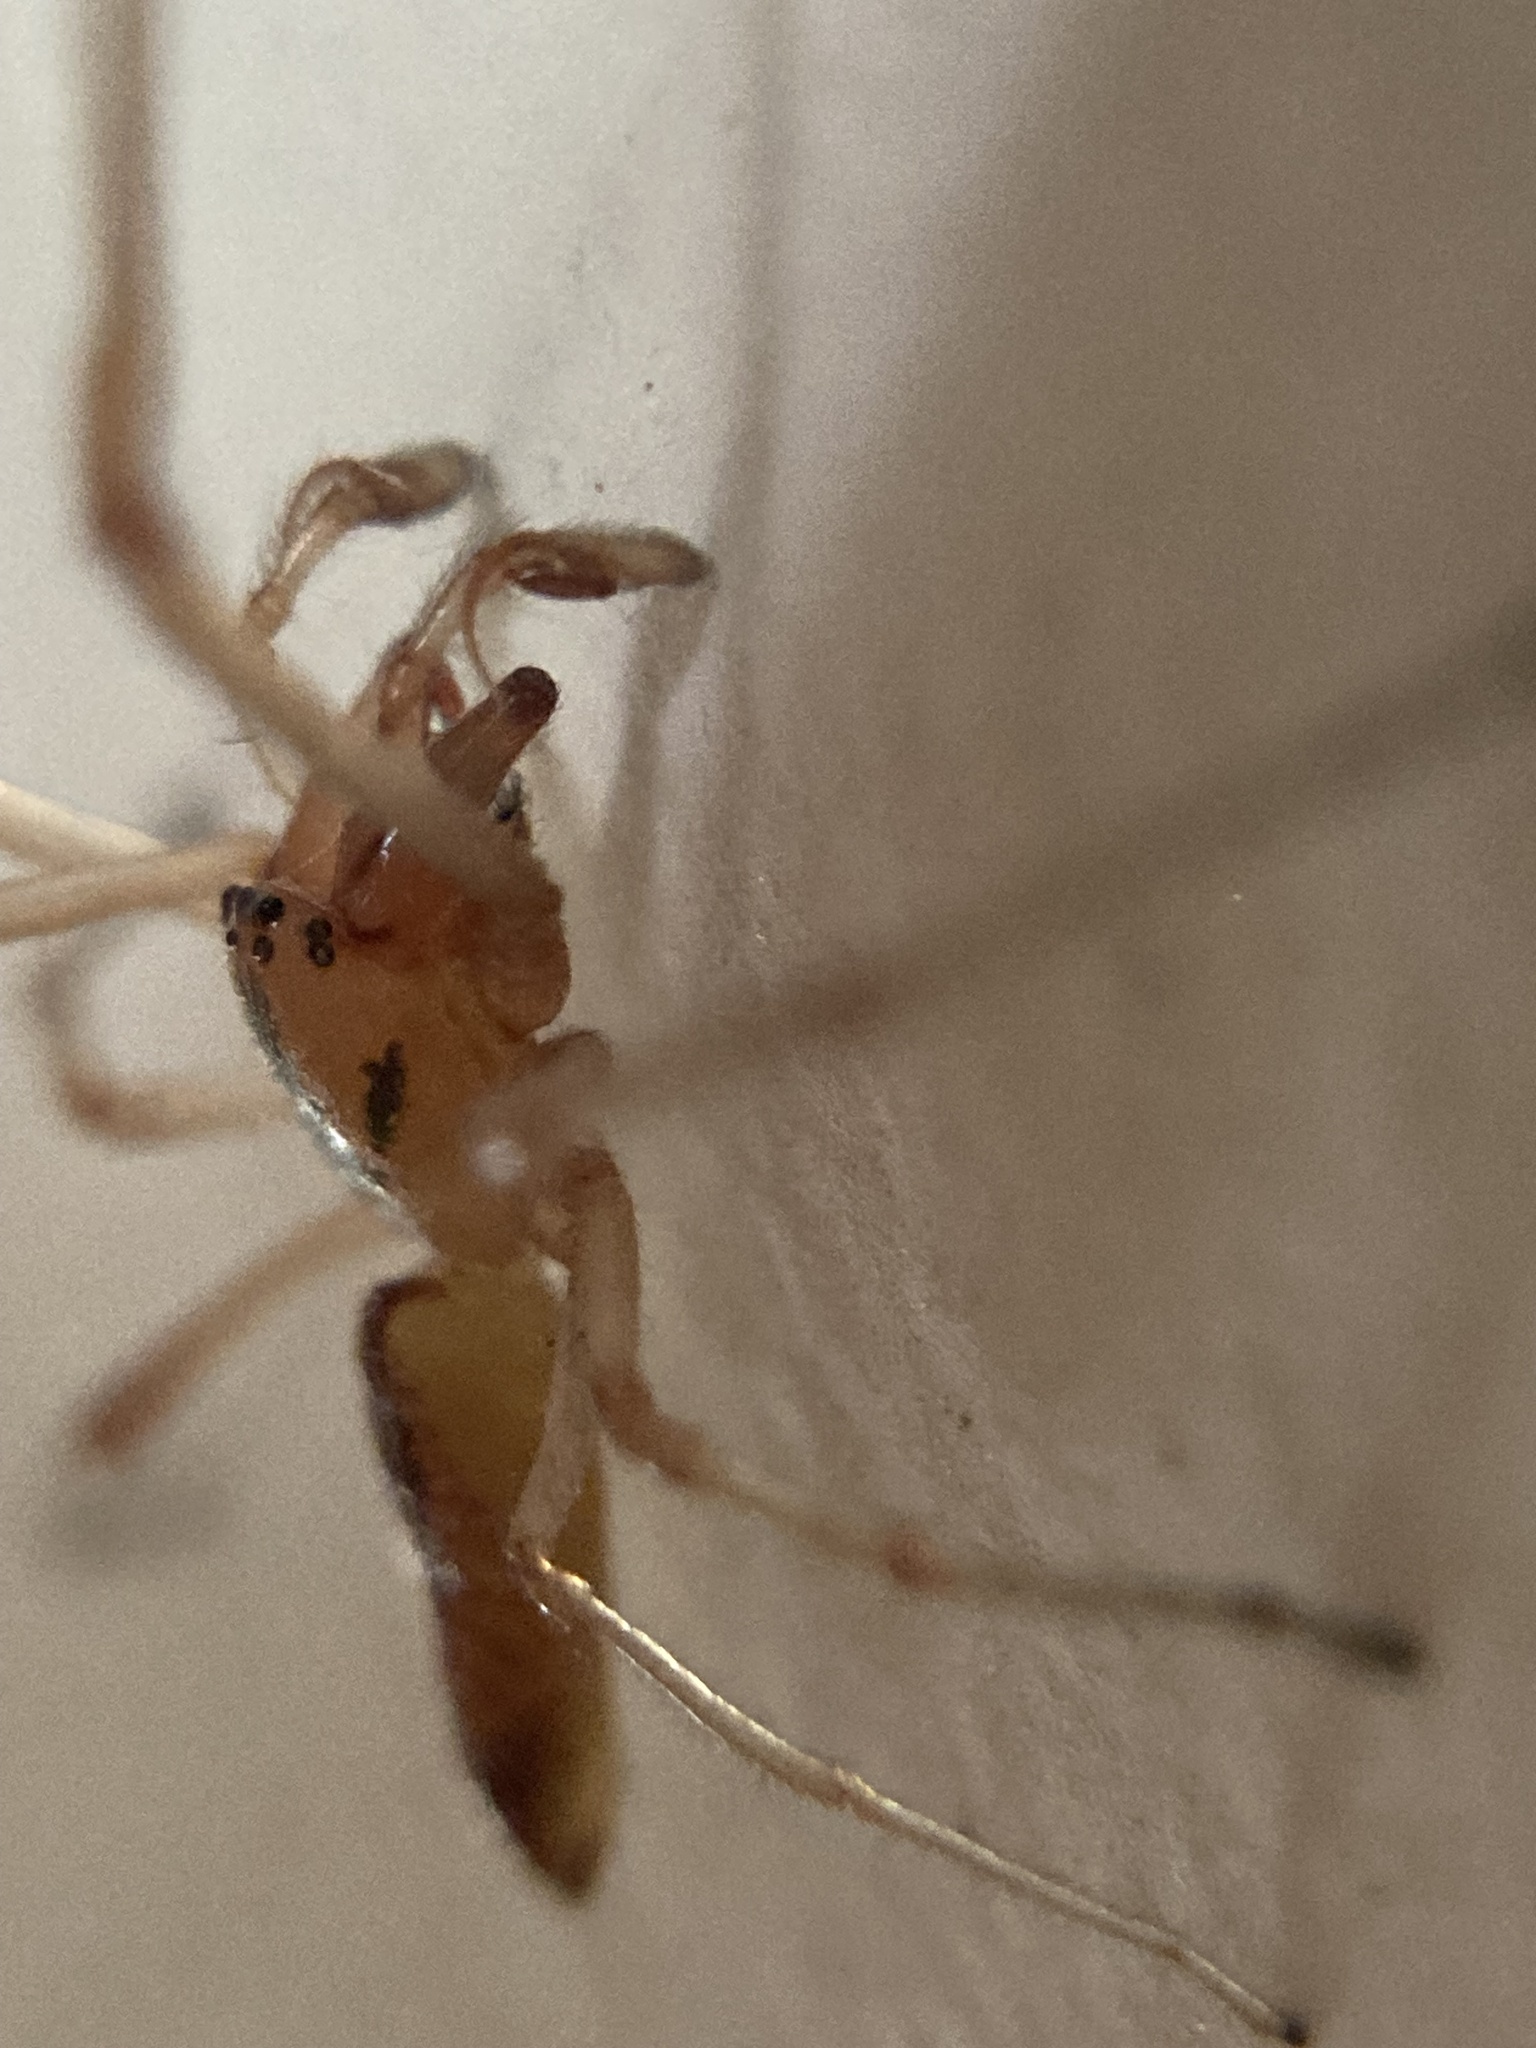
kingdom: Animalia
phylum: Arthropoda
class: Arachnida
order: Araneae
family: Cheiracanthiidae
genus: Cheiracanthium
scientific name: Cheiracanthium gracile
